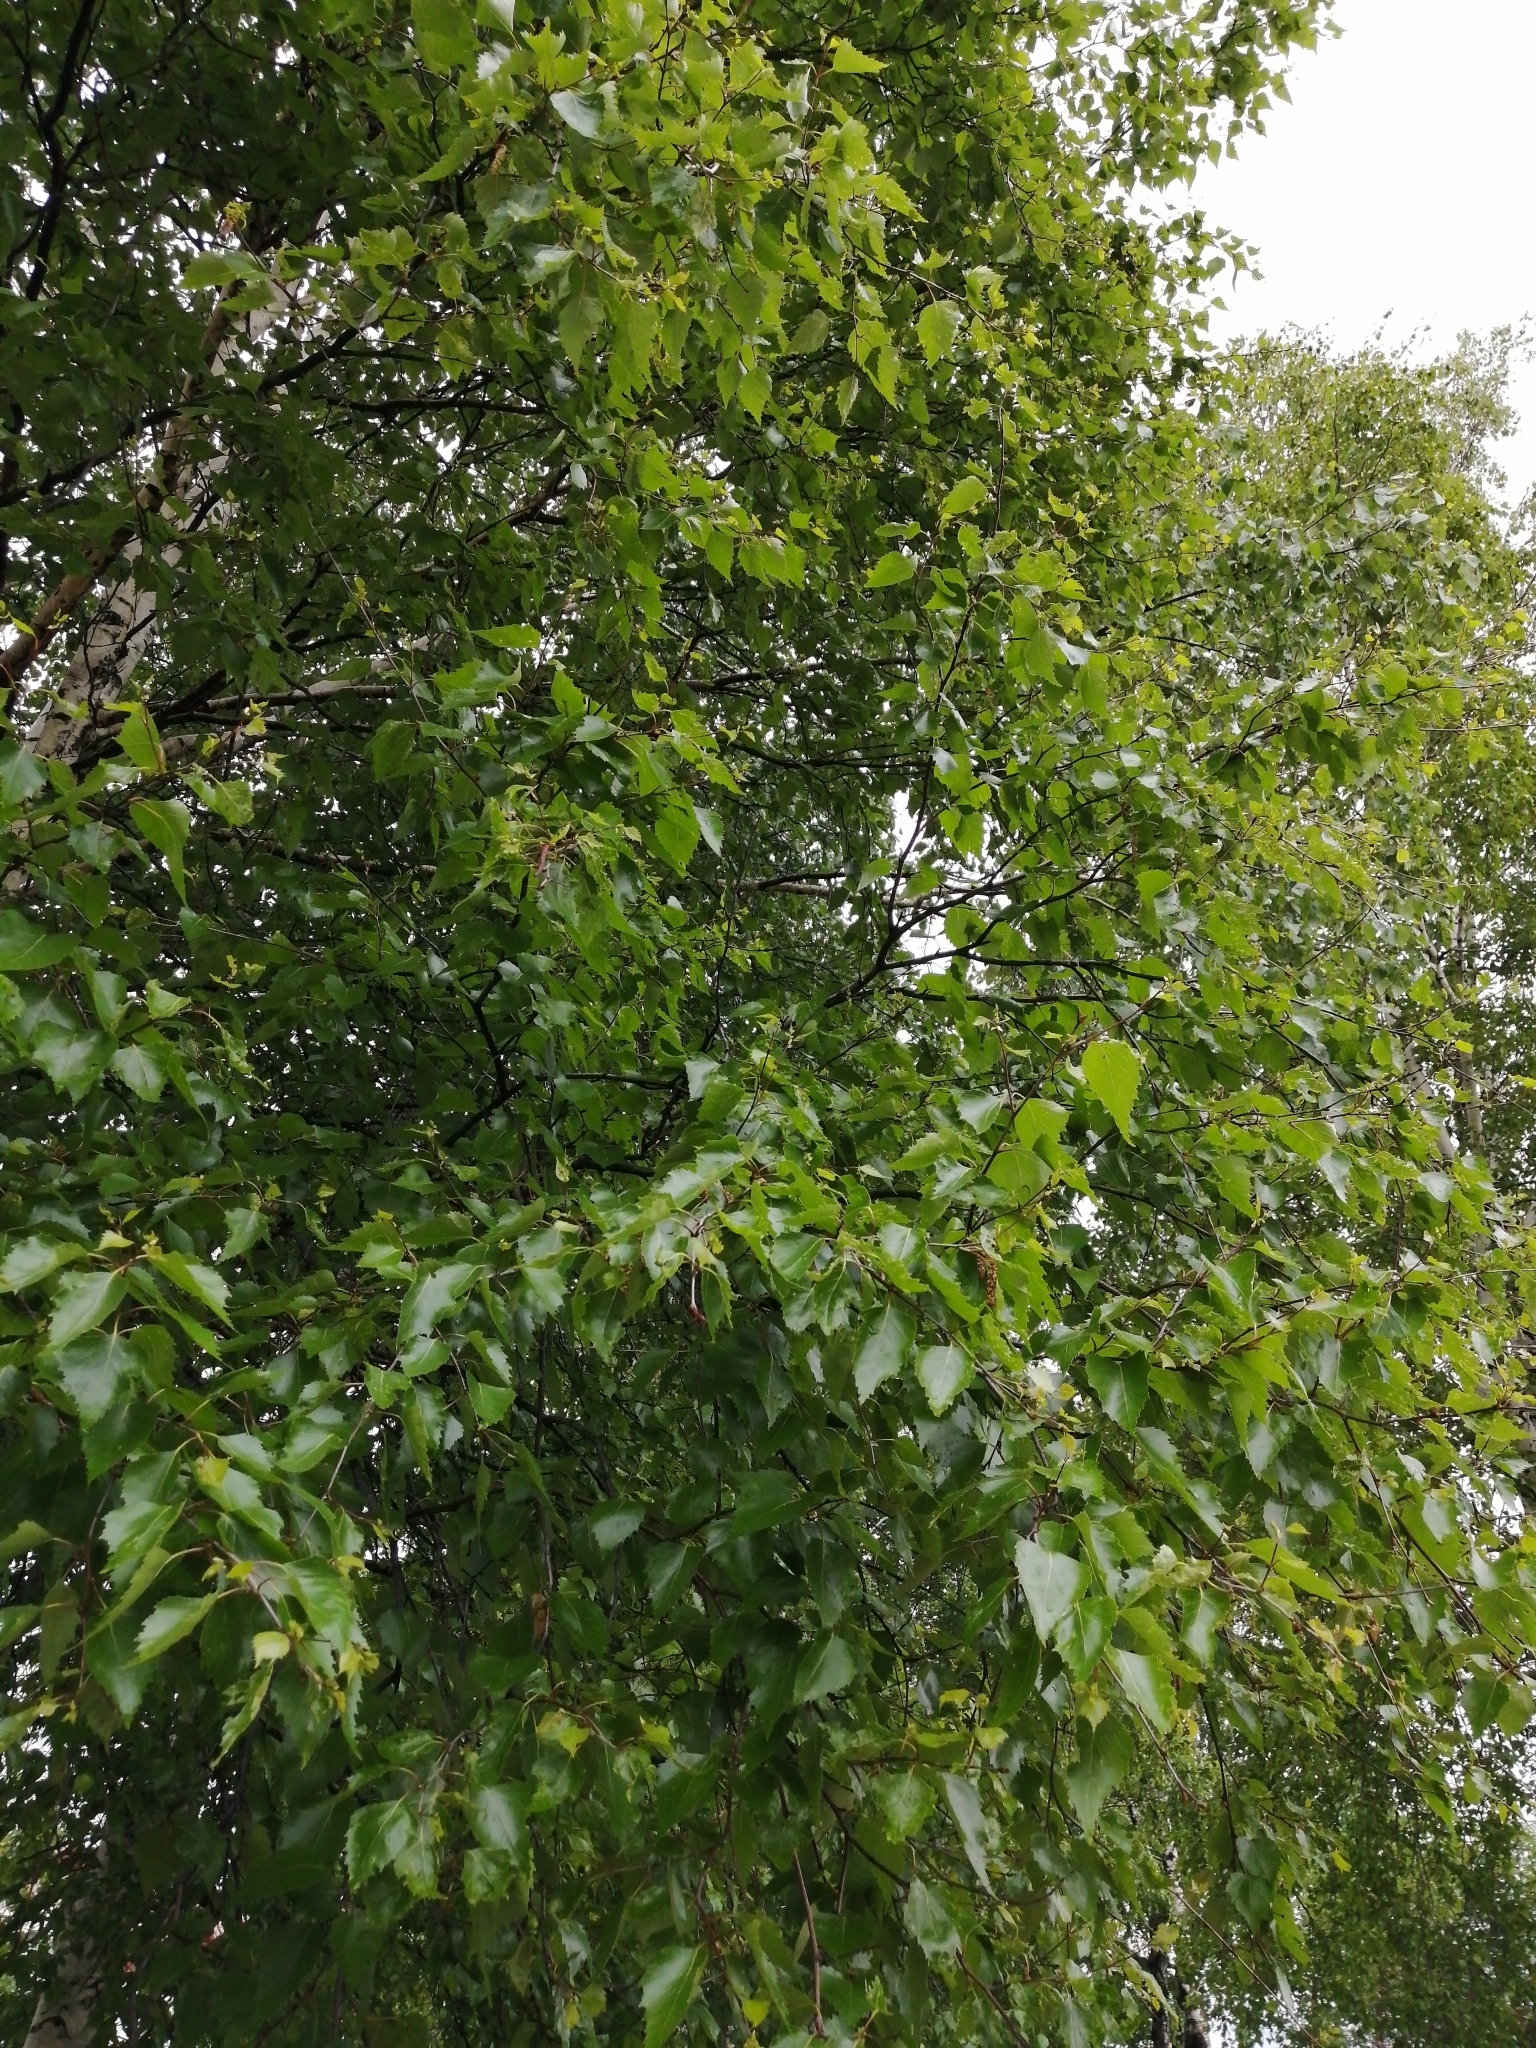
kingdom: Plantae
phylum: Tracheophyta
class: Magnoliopsida
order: Fagales
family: Betulaceae
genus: Betula
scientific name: Betula pendula
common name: Silver birch
